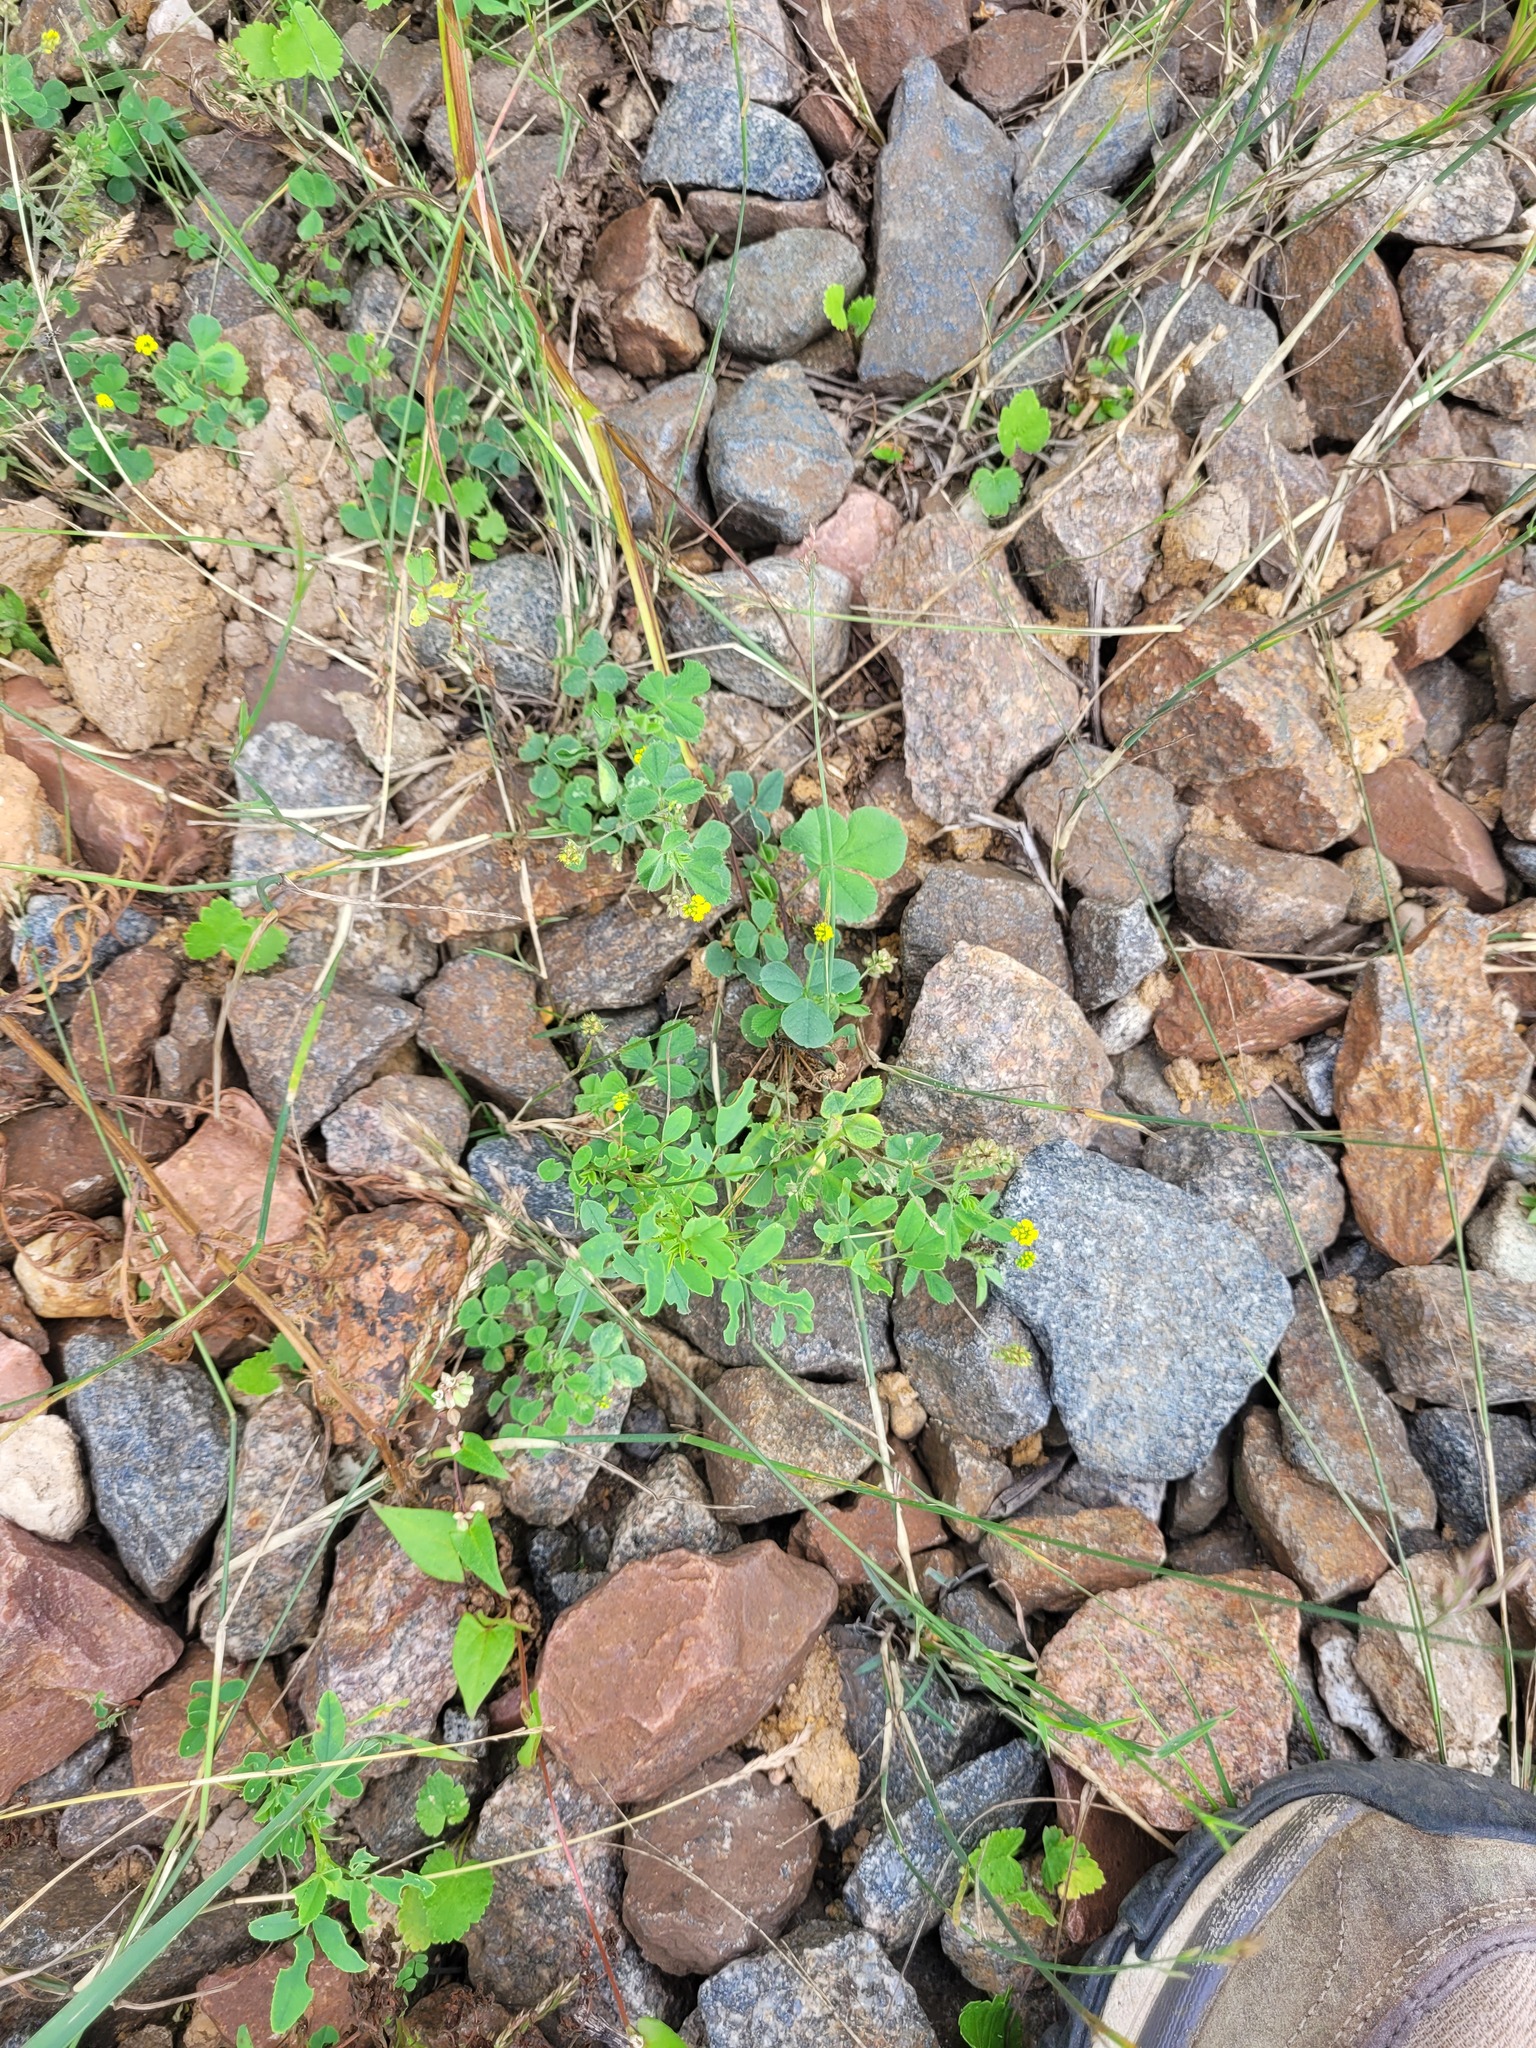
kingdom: Plantae
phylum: Tracheophyta
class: Magnoliopsida
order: Fabales
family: Fabaceae
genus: Medicago
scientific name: Medicago lupulina
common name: Black medick
